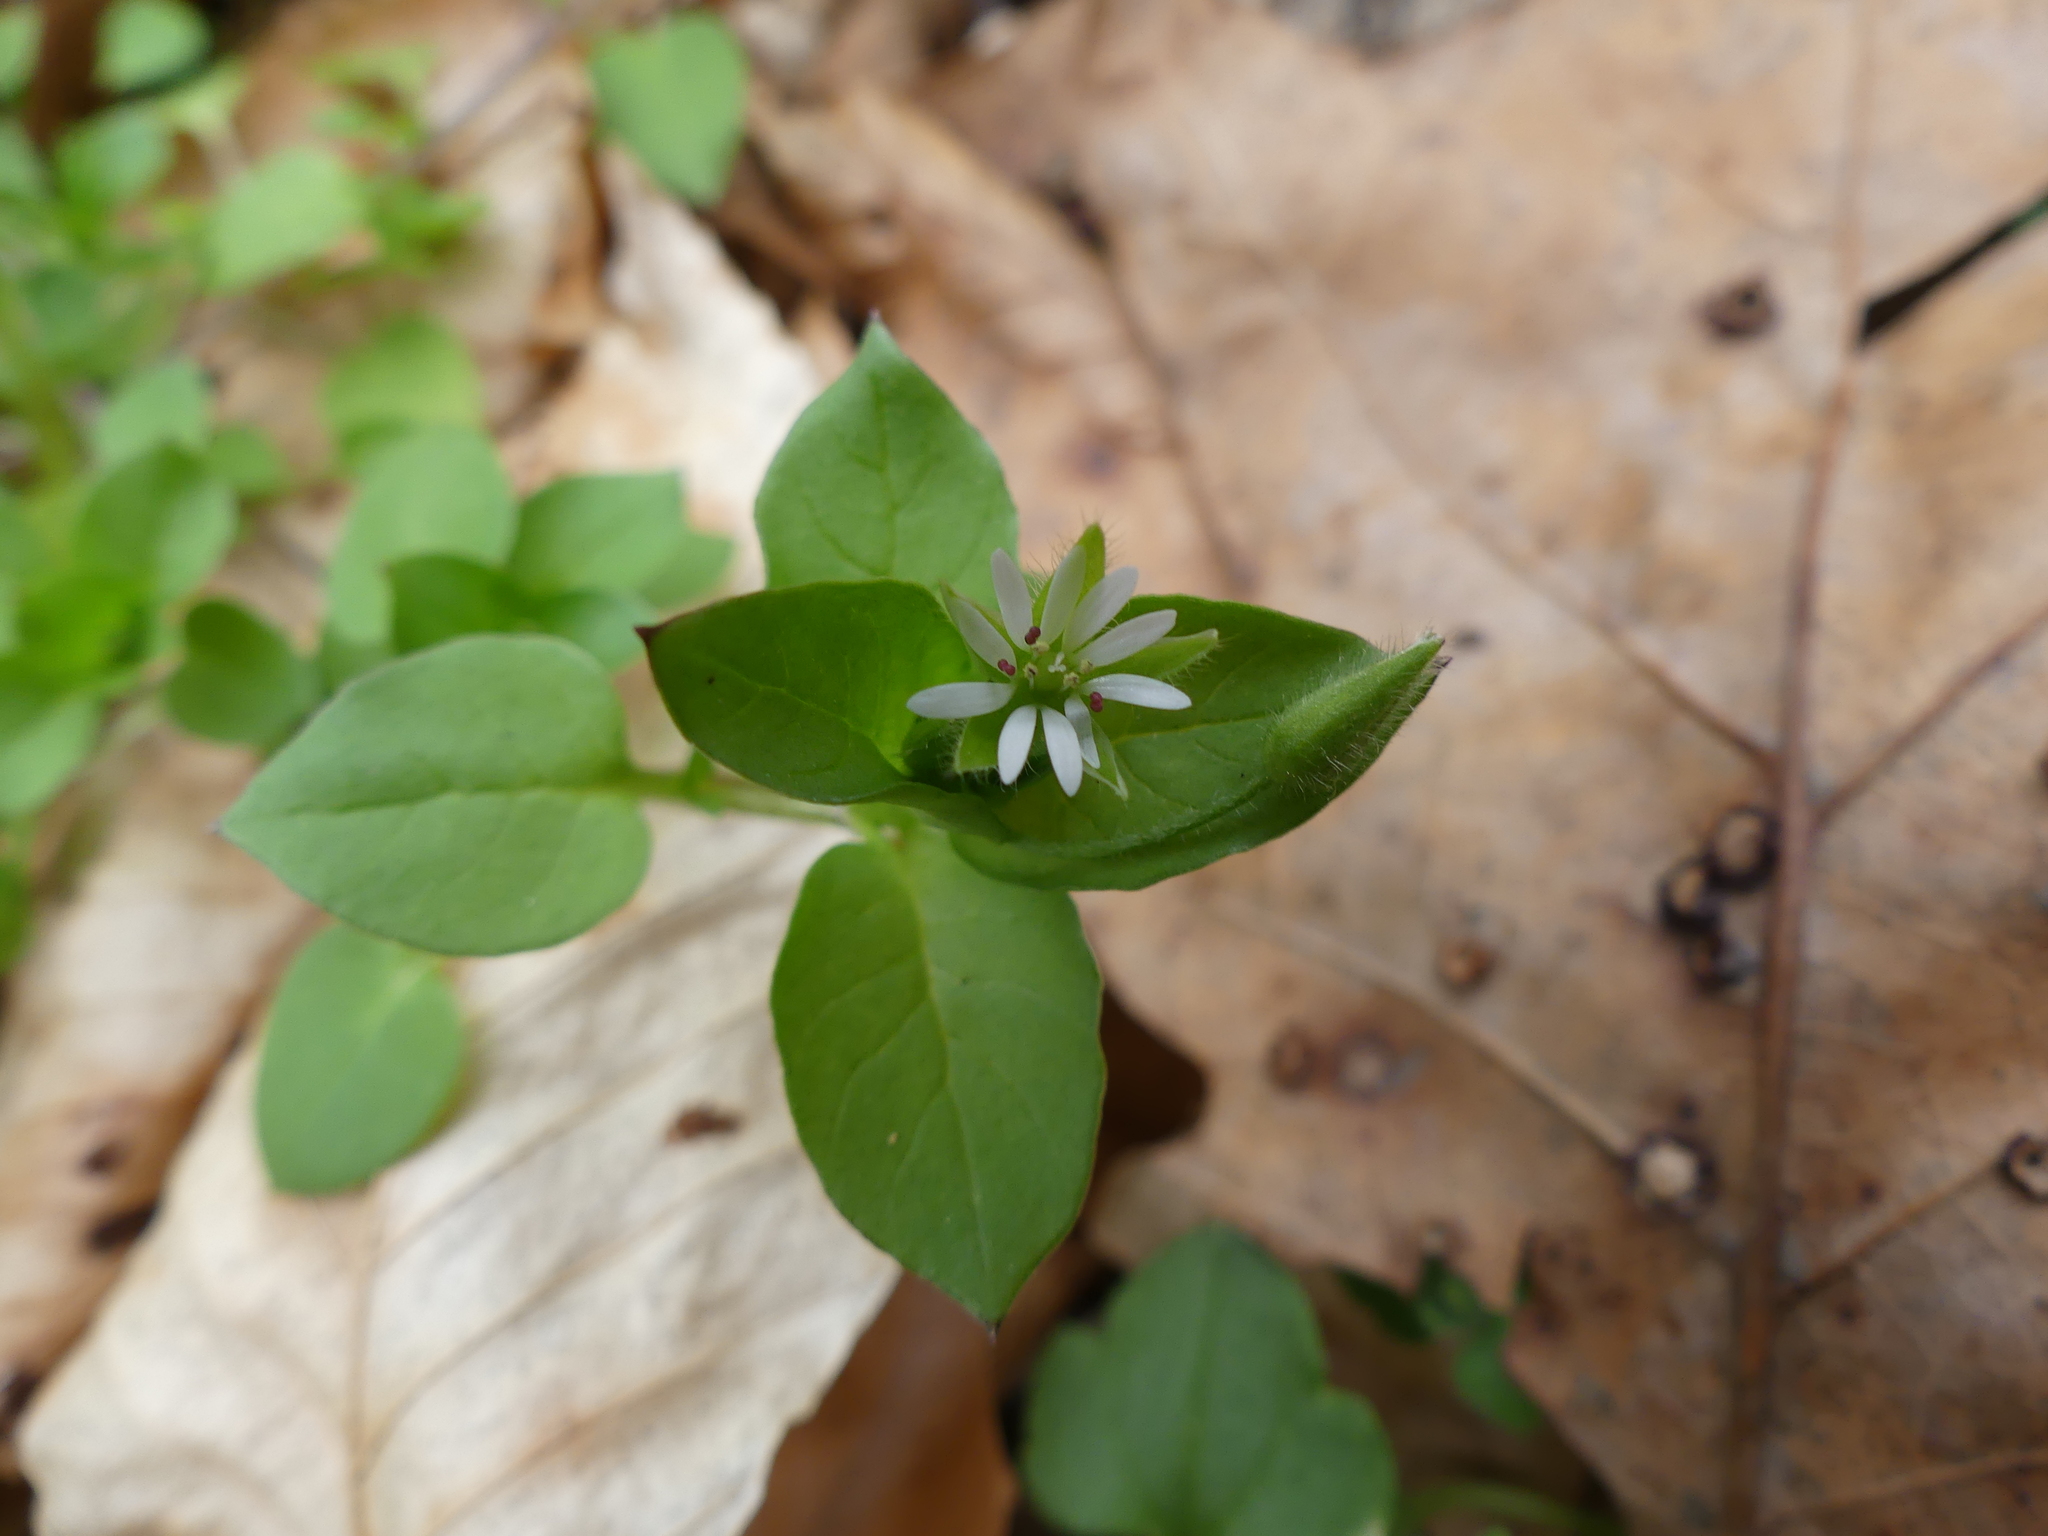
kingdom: Plantae
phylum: Tracheophyta
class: Magnoliopsida
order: Caryophyllales
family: Caryophyllaceae
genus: Stellaria
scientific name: Stellaria media
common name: Common chickweed
